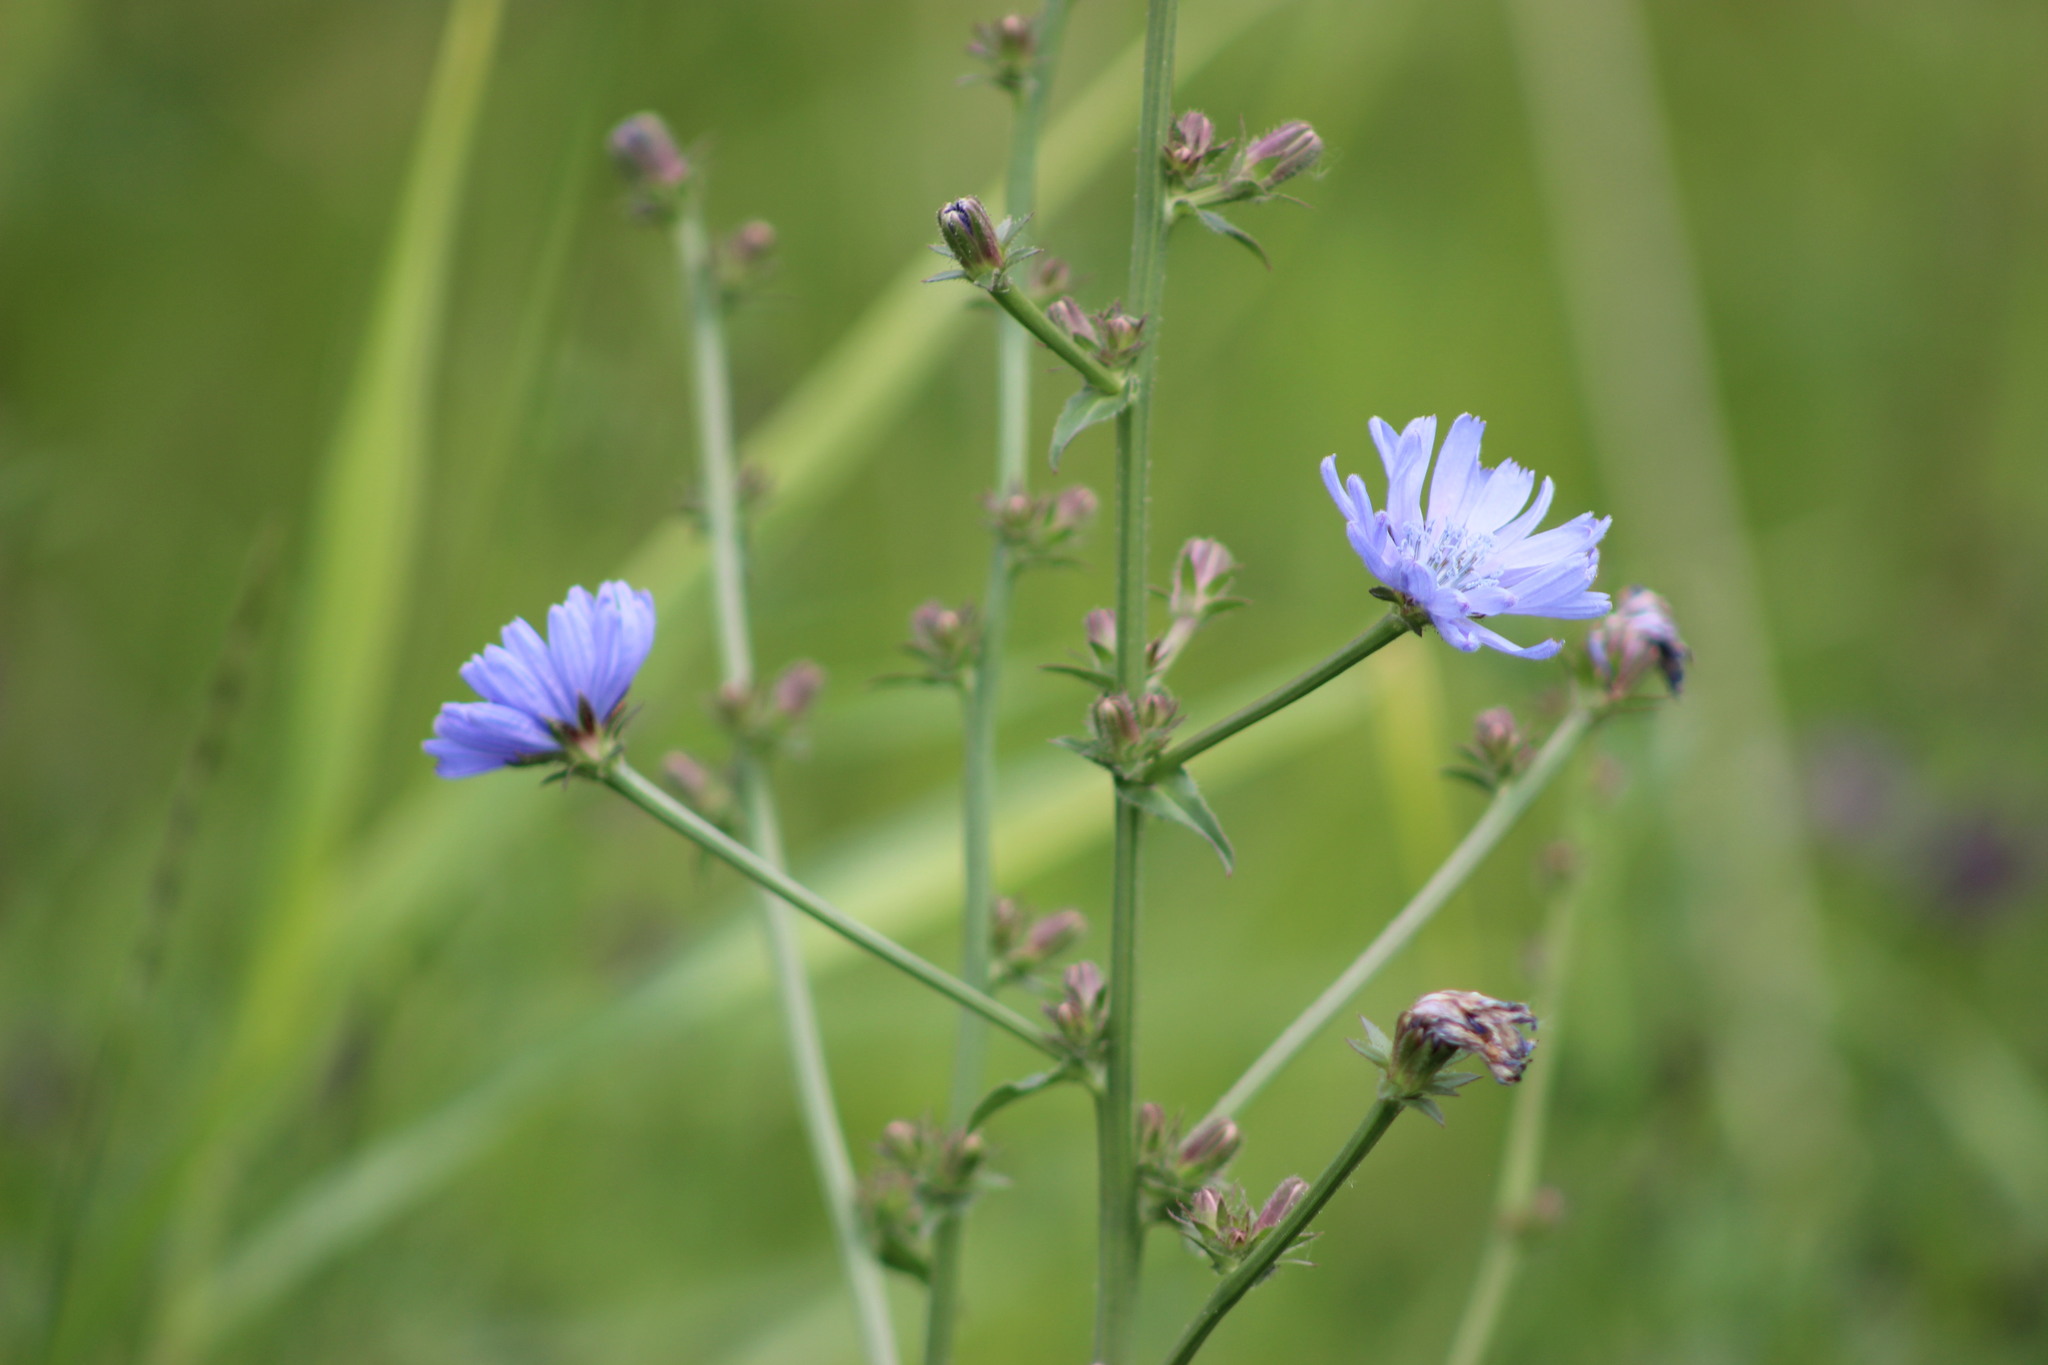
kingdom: Plantae
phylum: Tracheophyta
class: Magnoliopsida
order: Asterales
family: Asteraceae
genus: Cichorium
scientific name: Cichorium intybus
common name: Chicory
